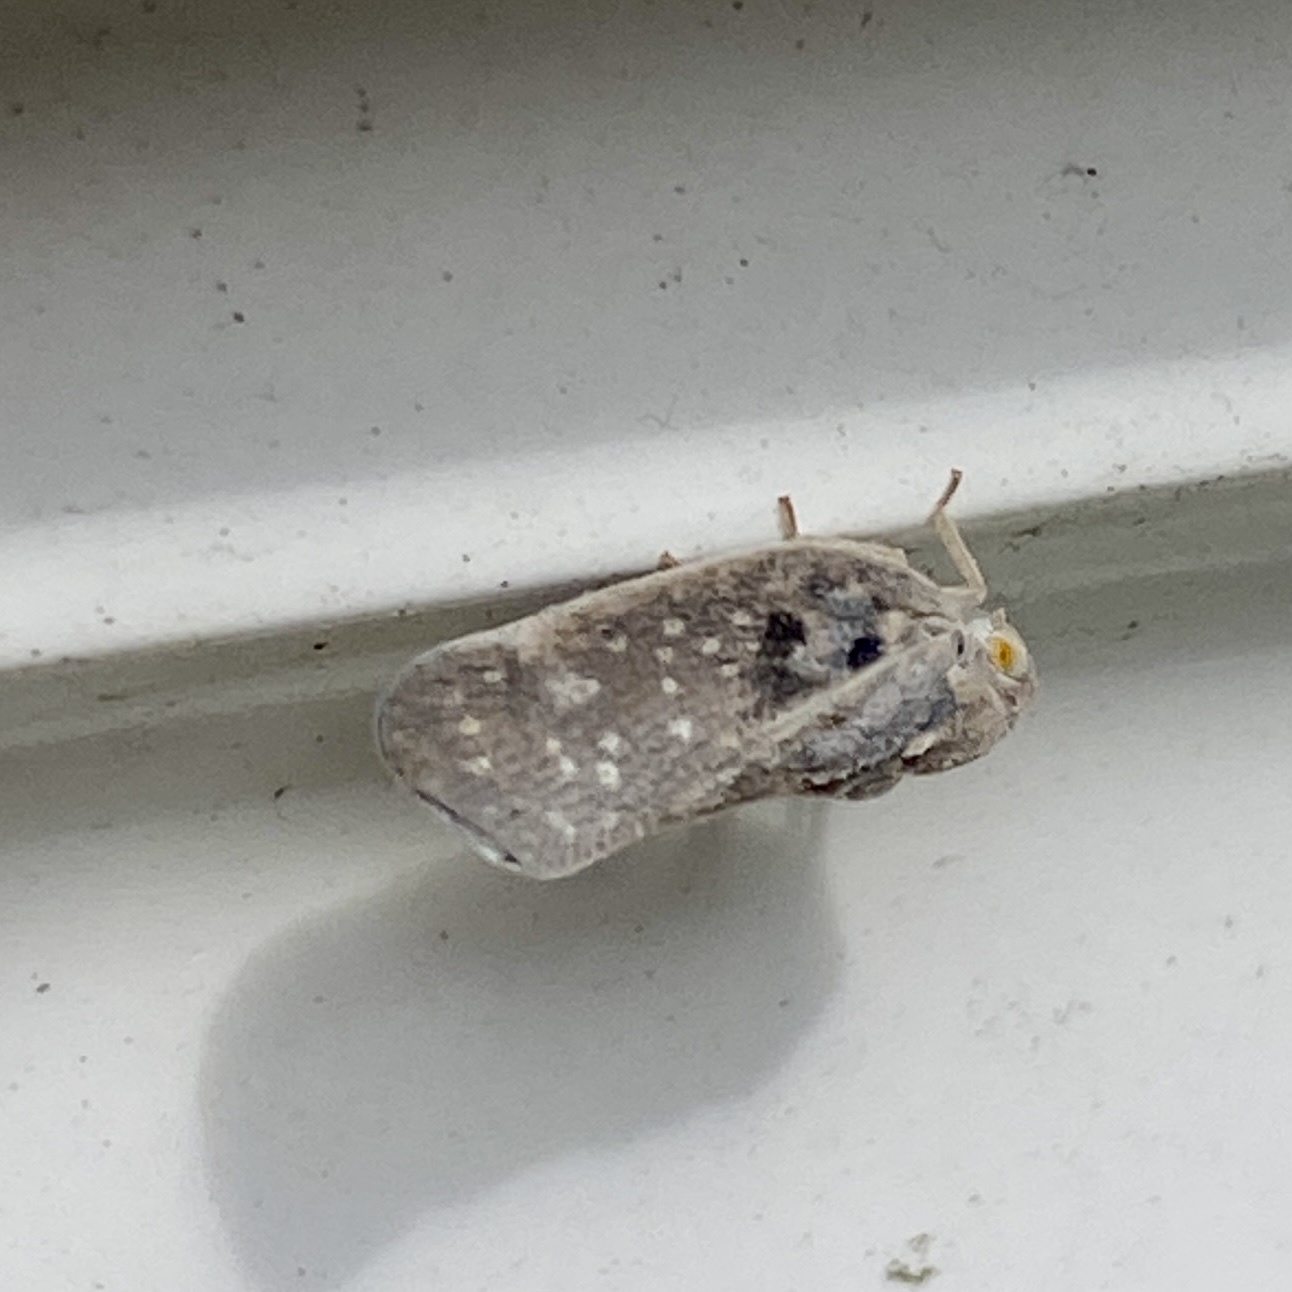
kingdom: Animalia
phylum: Arthropoda
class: Insecta
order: Hemiptera
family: Flatidae
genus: Metcalfa
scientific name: Metcalfa pruinosa
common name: Citrus flatid planthopper
